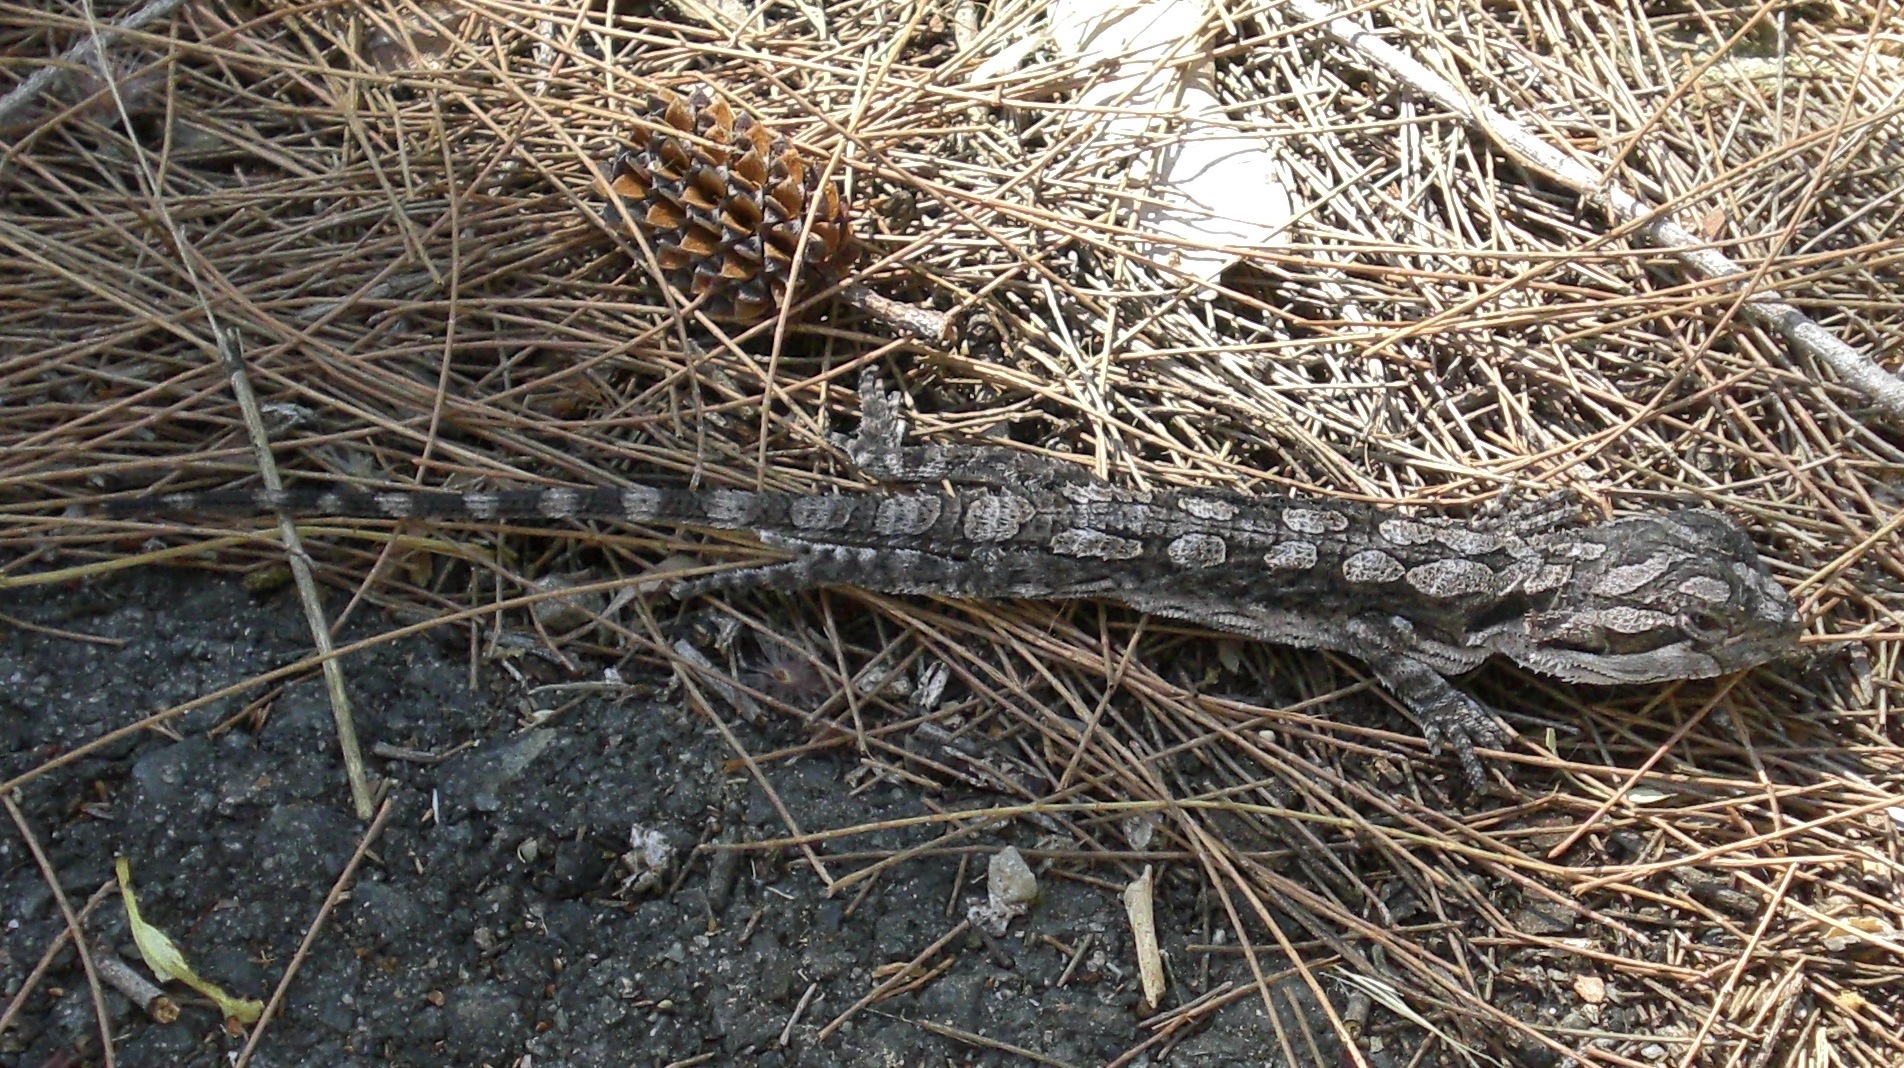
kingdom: Animalia
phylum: Chordata
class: Squamata
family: Agamidae
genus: Pogona
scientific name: Pogona barbata
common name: Bearded dragon
